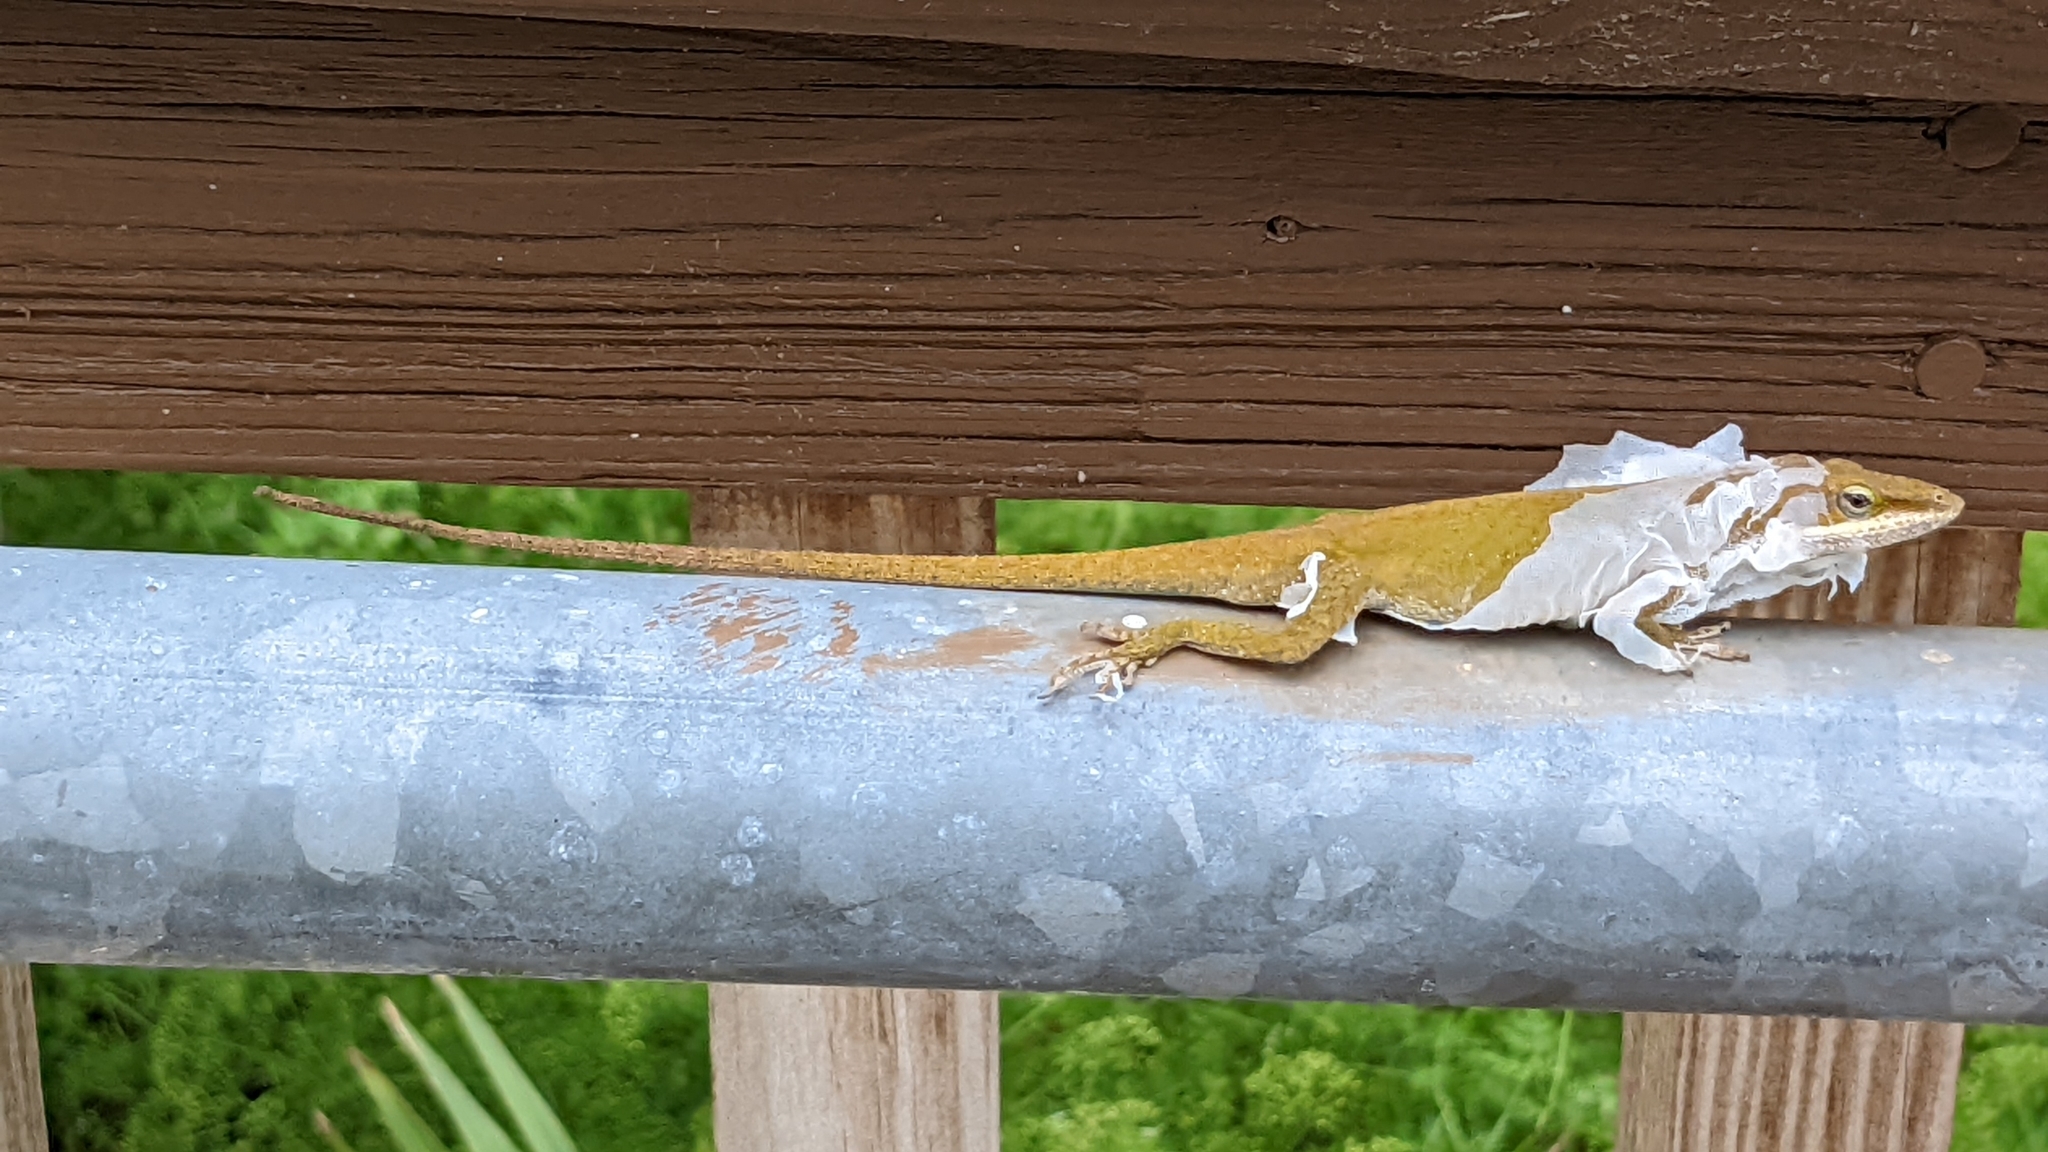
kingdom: Animalia
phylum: Chordata
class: Squamata
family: Dactyloidae
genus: Anolis
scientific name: Anolis carolinensis
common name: Green anole
